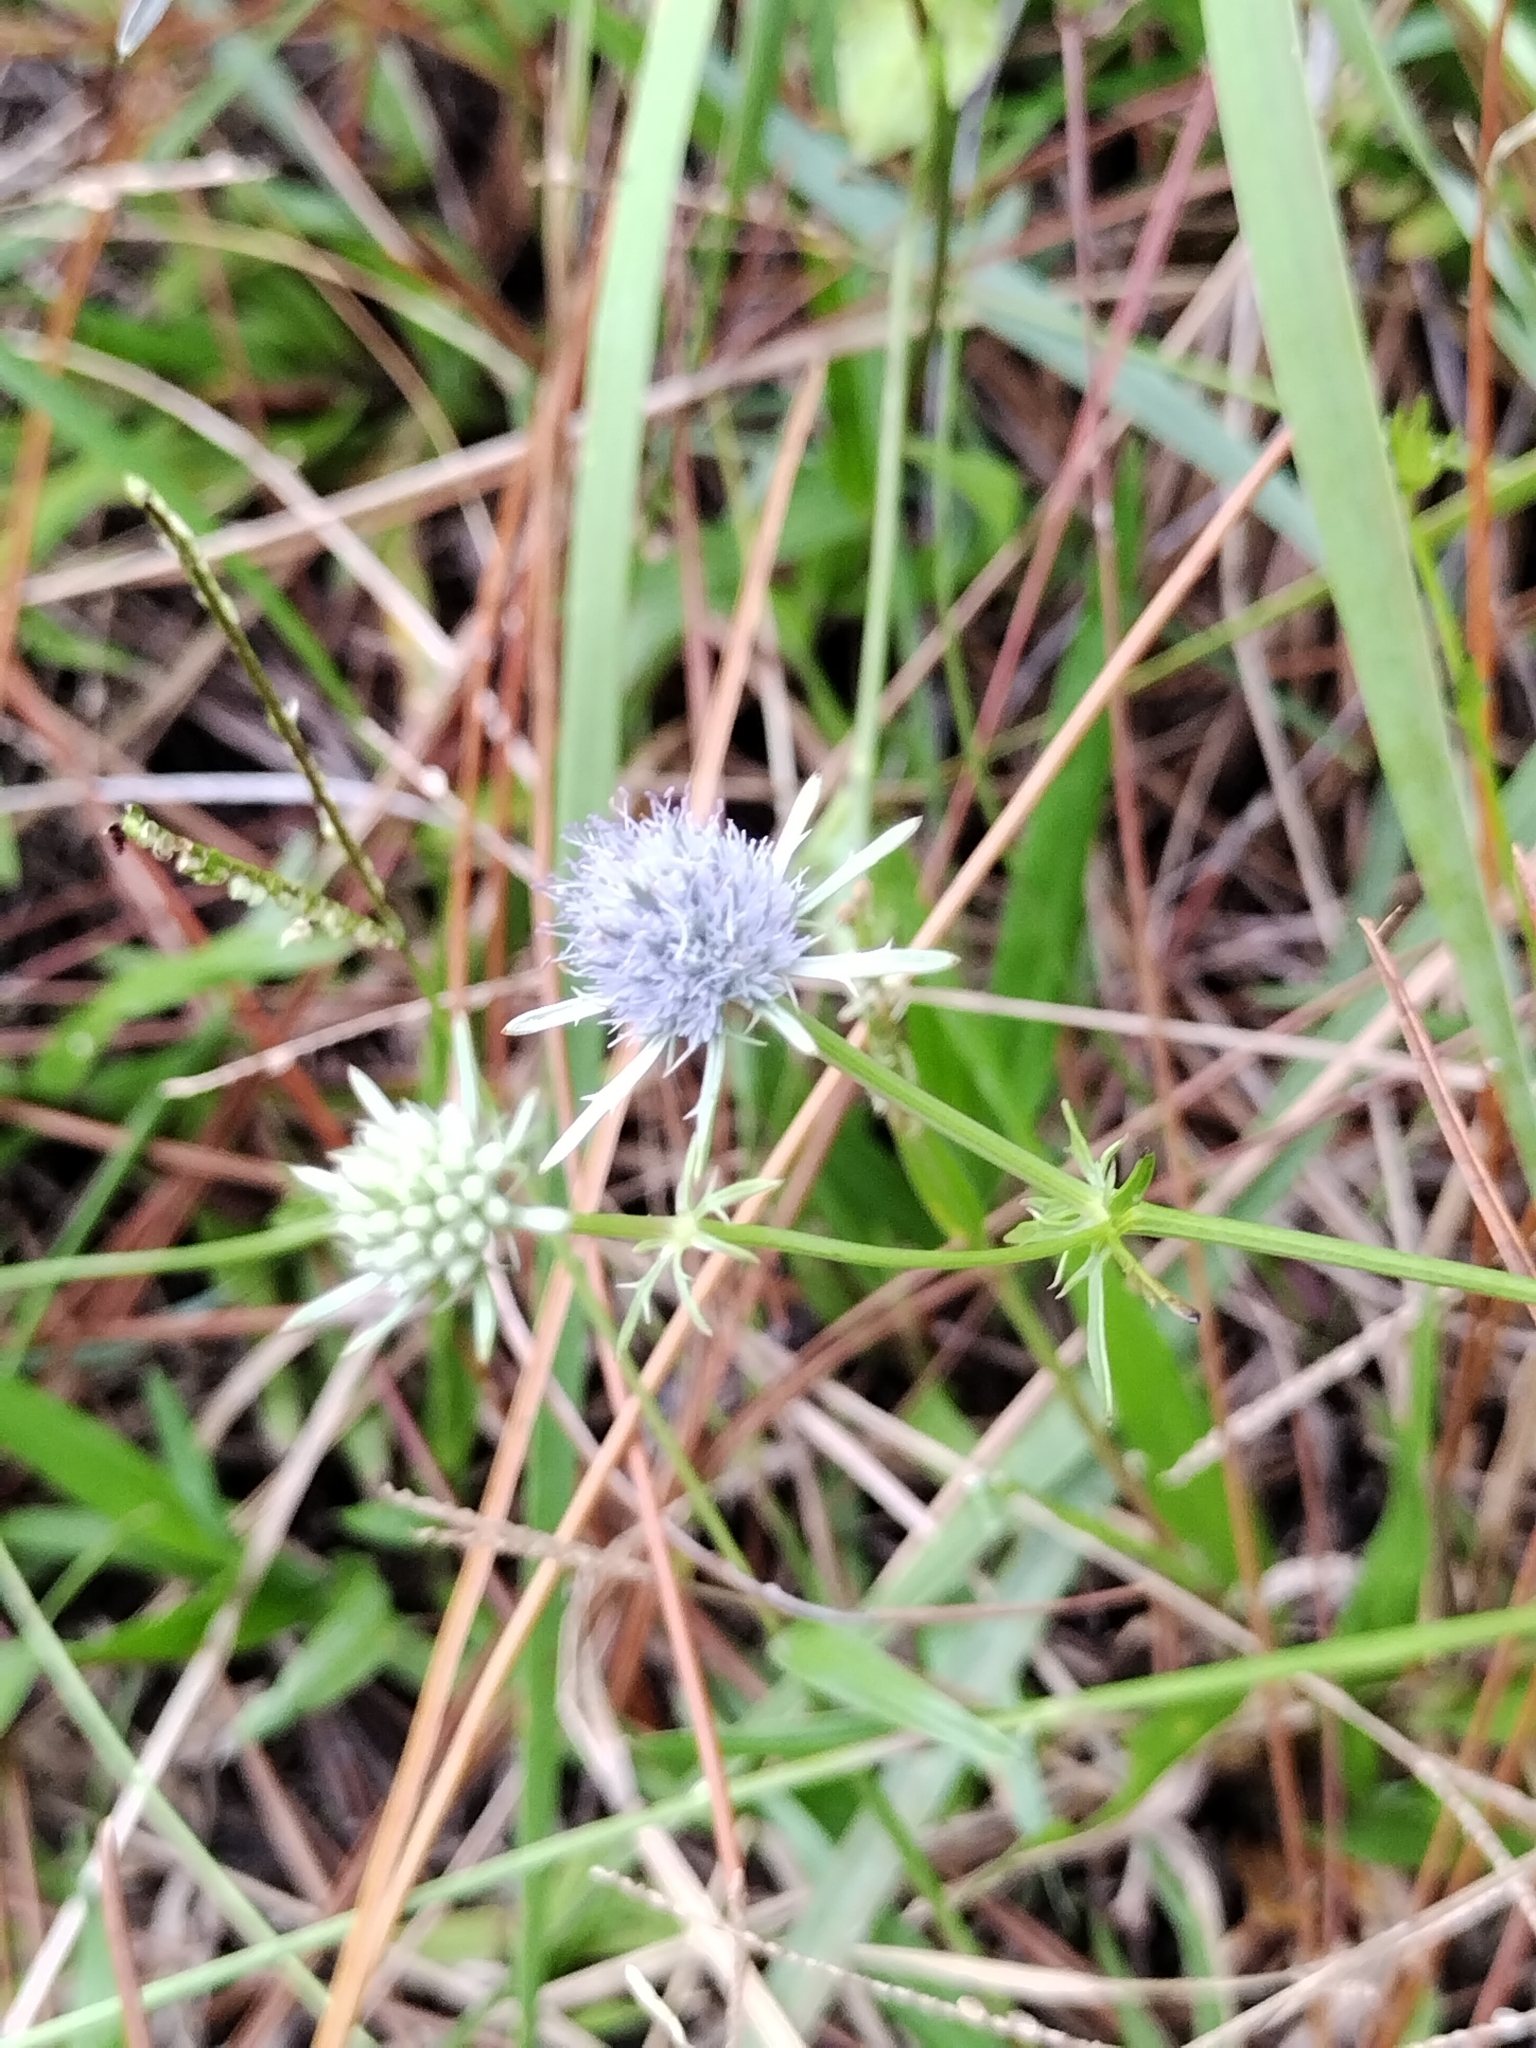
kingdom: Plantae
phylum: Tracheophyta
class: Magnoliopsida
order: Apiales
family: Apiaceae
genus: Eryngium
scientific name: Eryngium integrifolium
